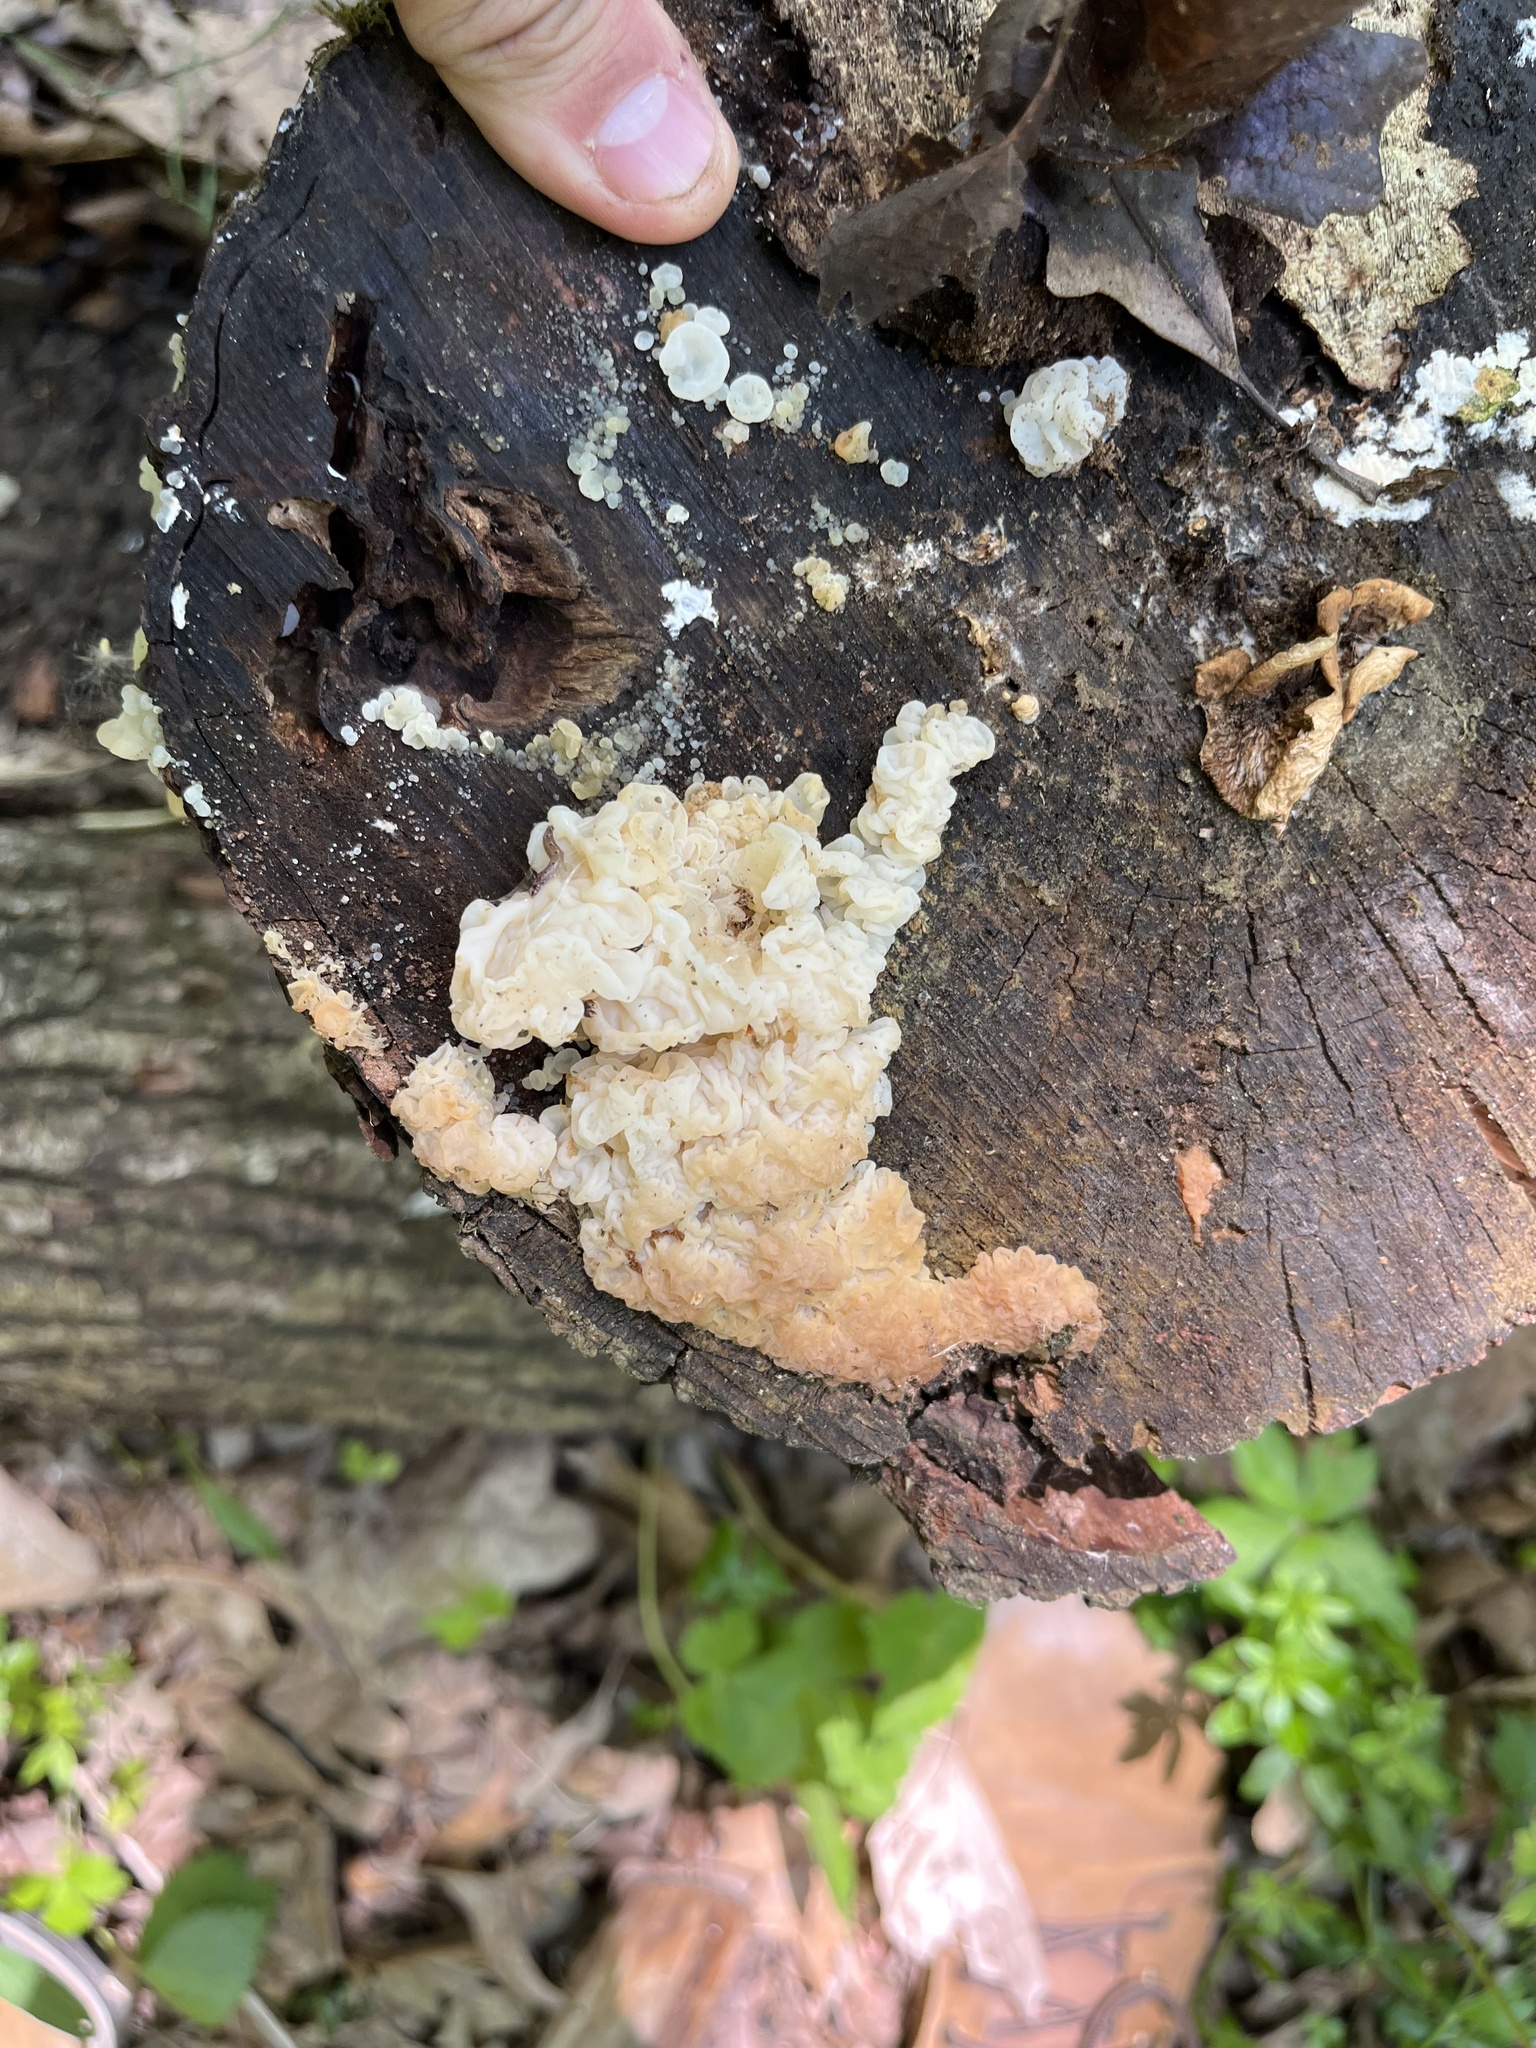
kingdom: Fungi
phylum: Basidiomycota
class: Agaricomycetes
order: Auriculariales
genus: Ductifera
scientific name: Ductifera pululahuana
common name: White jelly fungus
